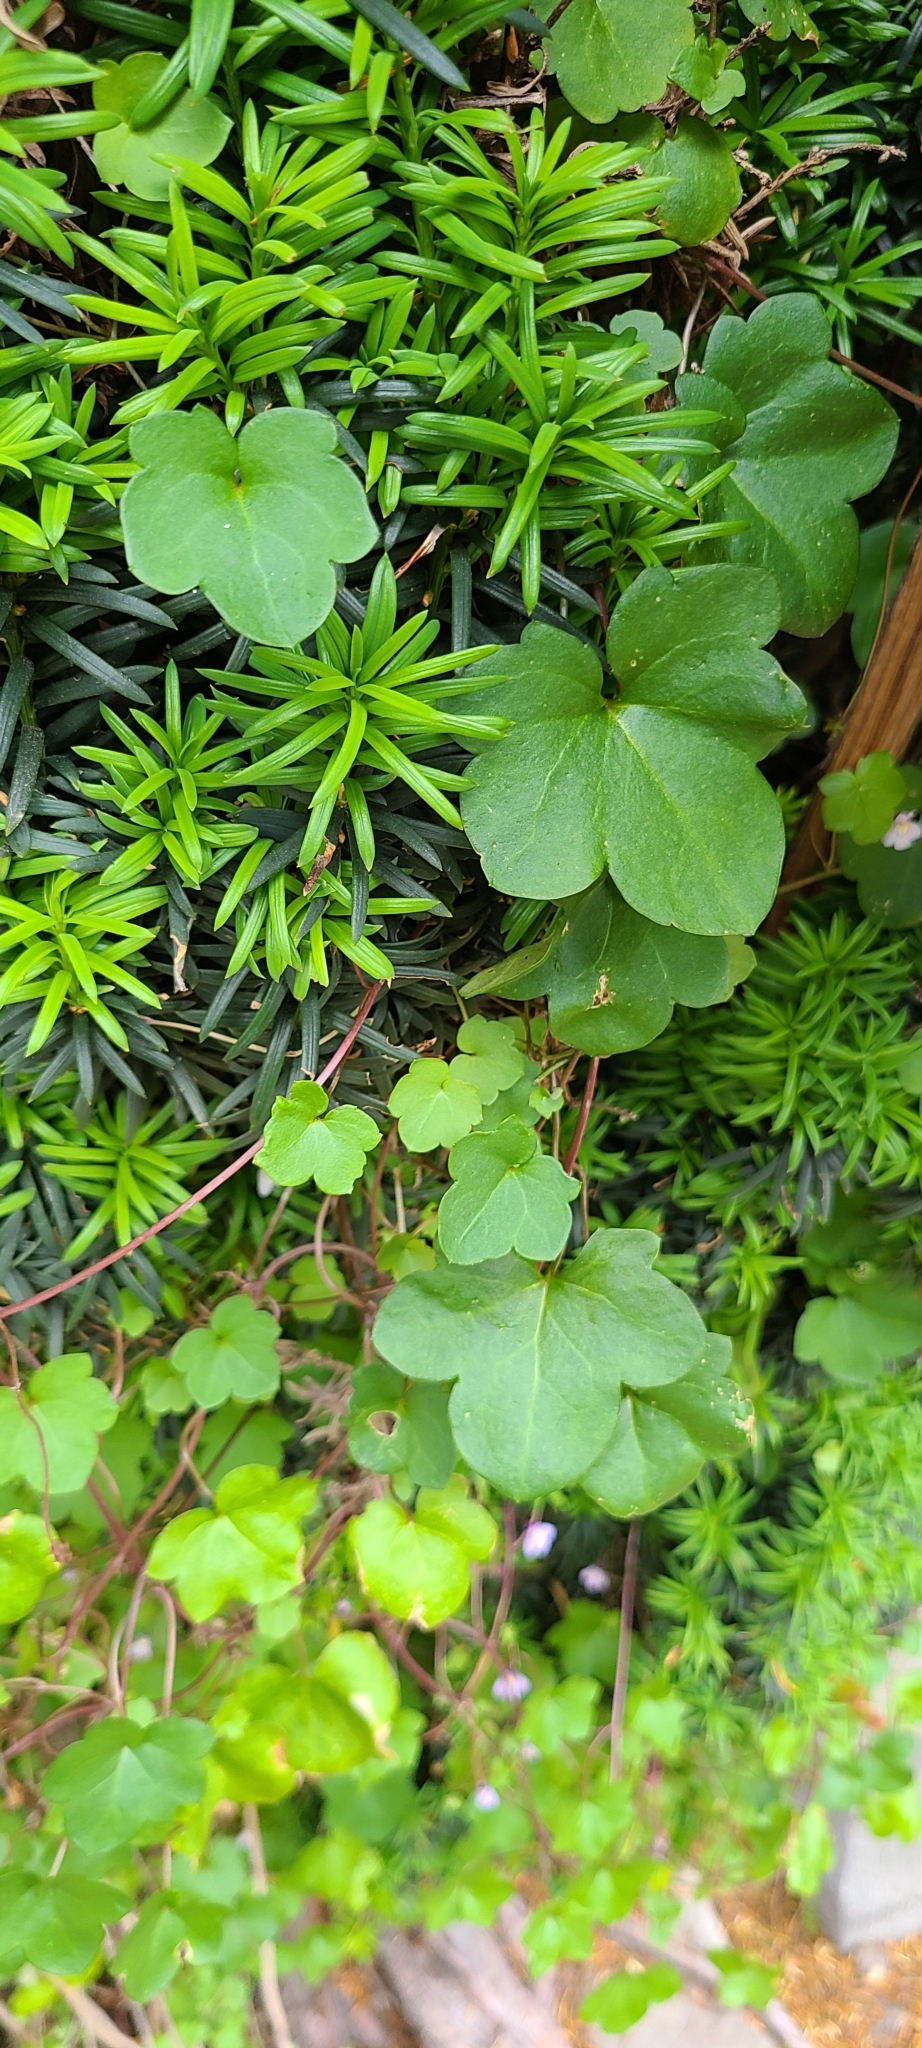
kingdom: Plantae
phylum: Tracheophyta
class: Magnoliopsida
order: Lamiales
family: Plantaginaceae
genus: Cymbalaria
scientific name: Cymbalaria muralis
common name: Ivy-leaved toadflax
